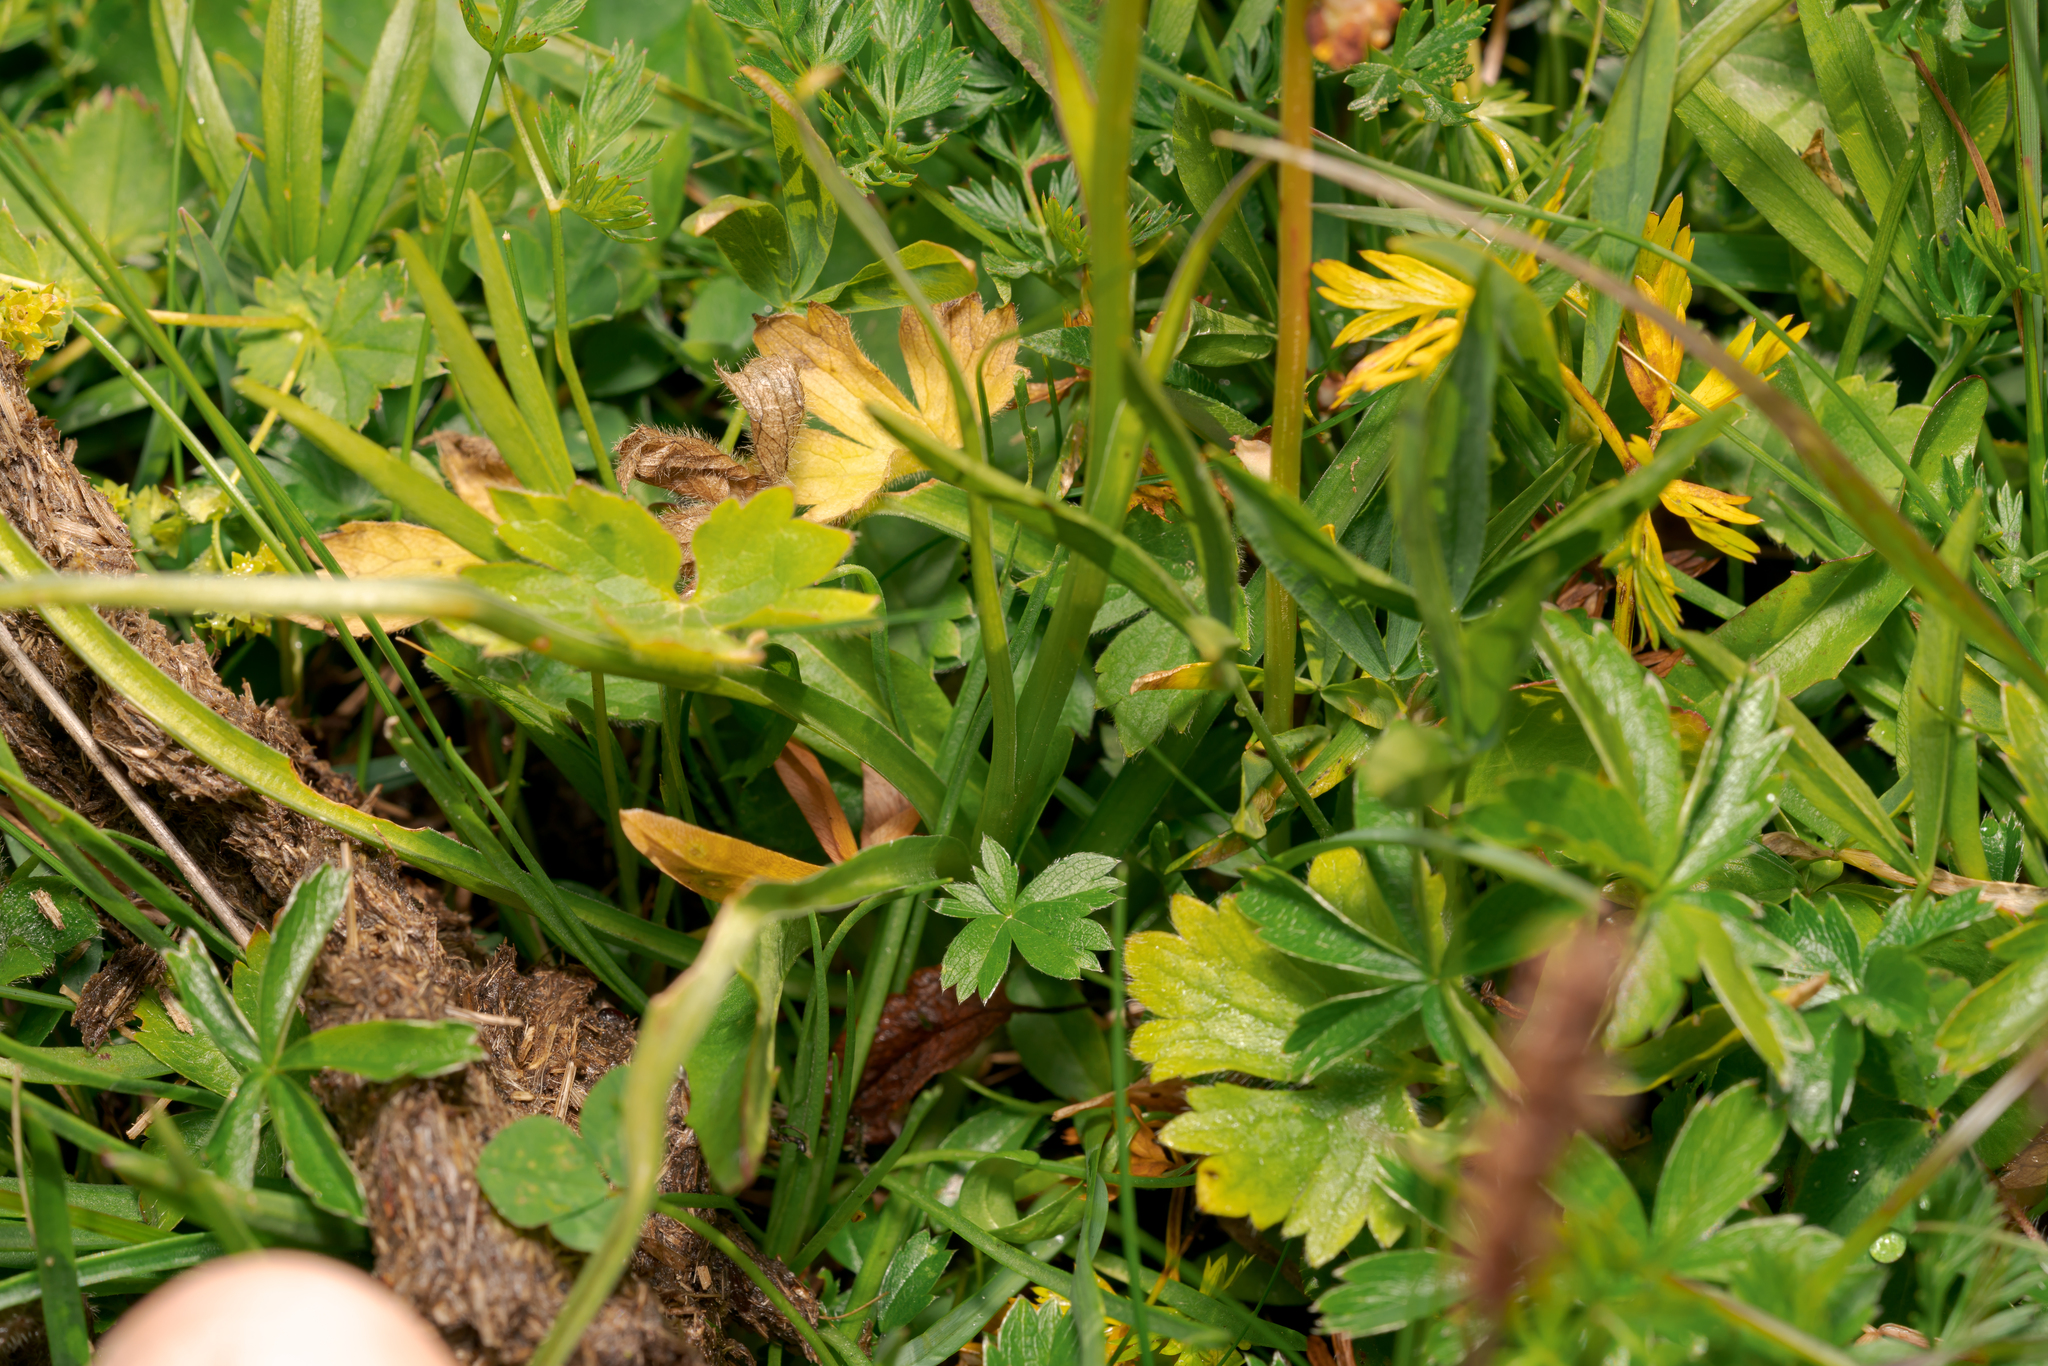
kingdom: Plantae
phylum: Tracheophyta
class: Liliopsida
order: Asparagales
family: Orchidaceae
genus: Gymnadenia
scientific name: Gymnadenia rhellicani
